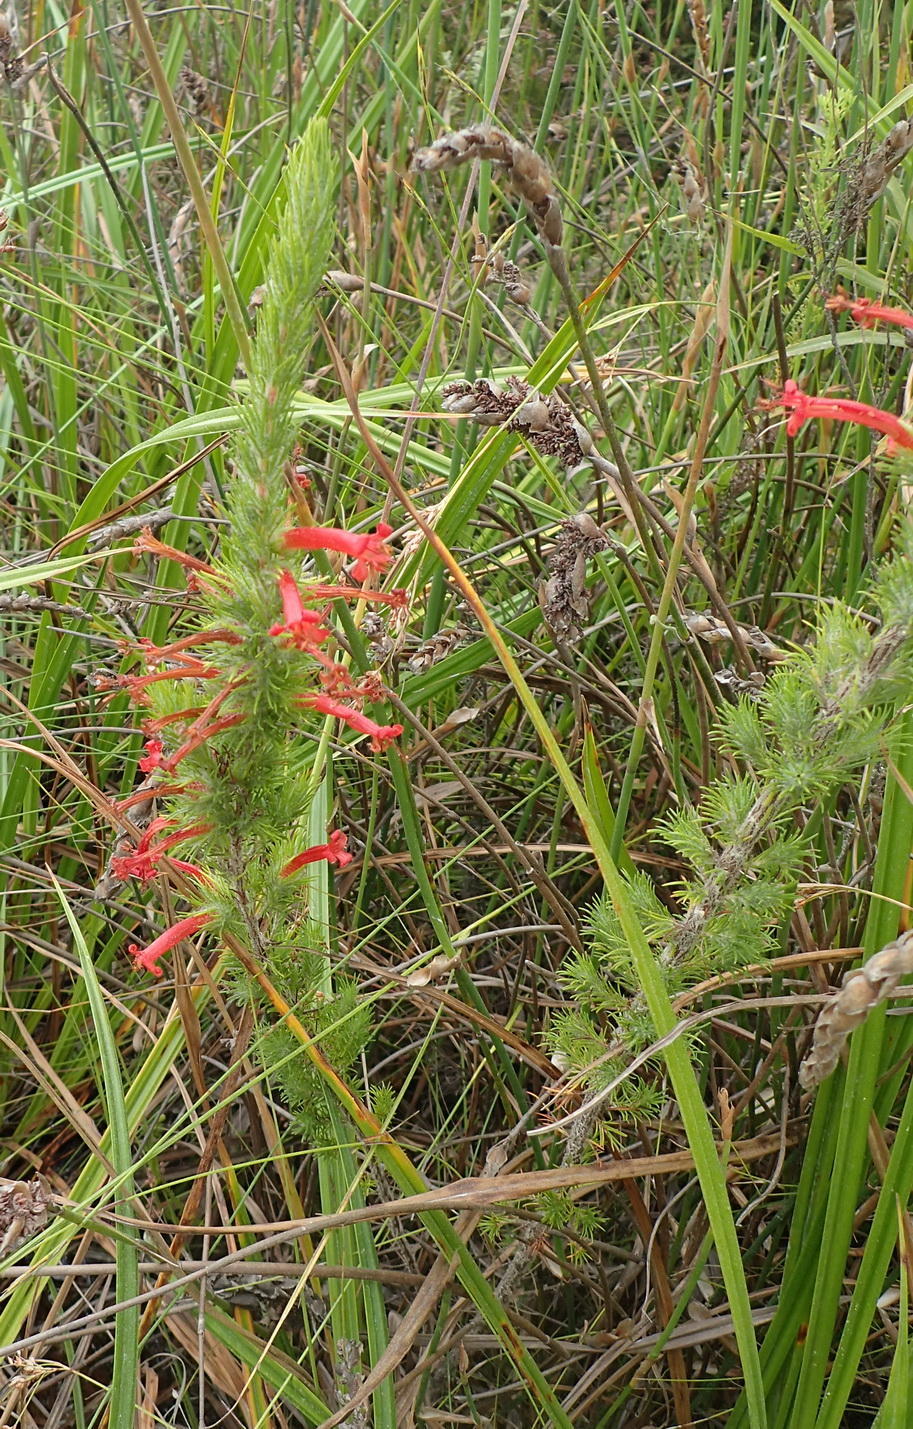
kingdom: Plantae
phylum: Tracheophyta
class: Magnoliopsida
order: Ericales
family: Ericaceae
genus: Erica
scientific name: Erica curviflora
